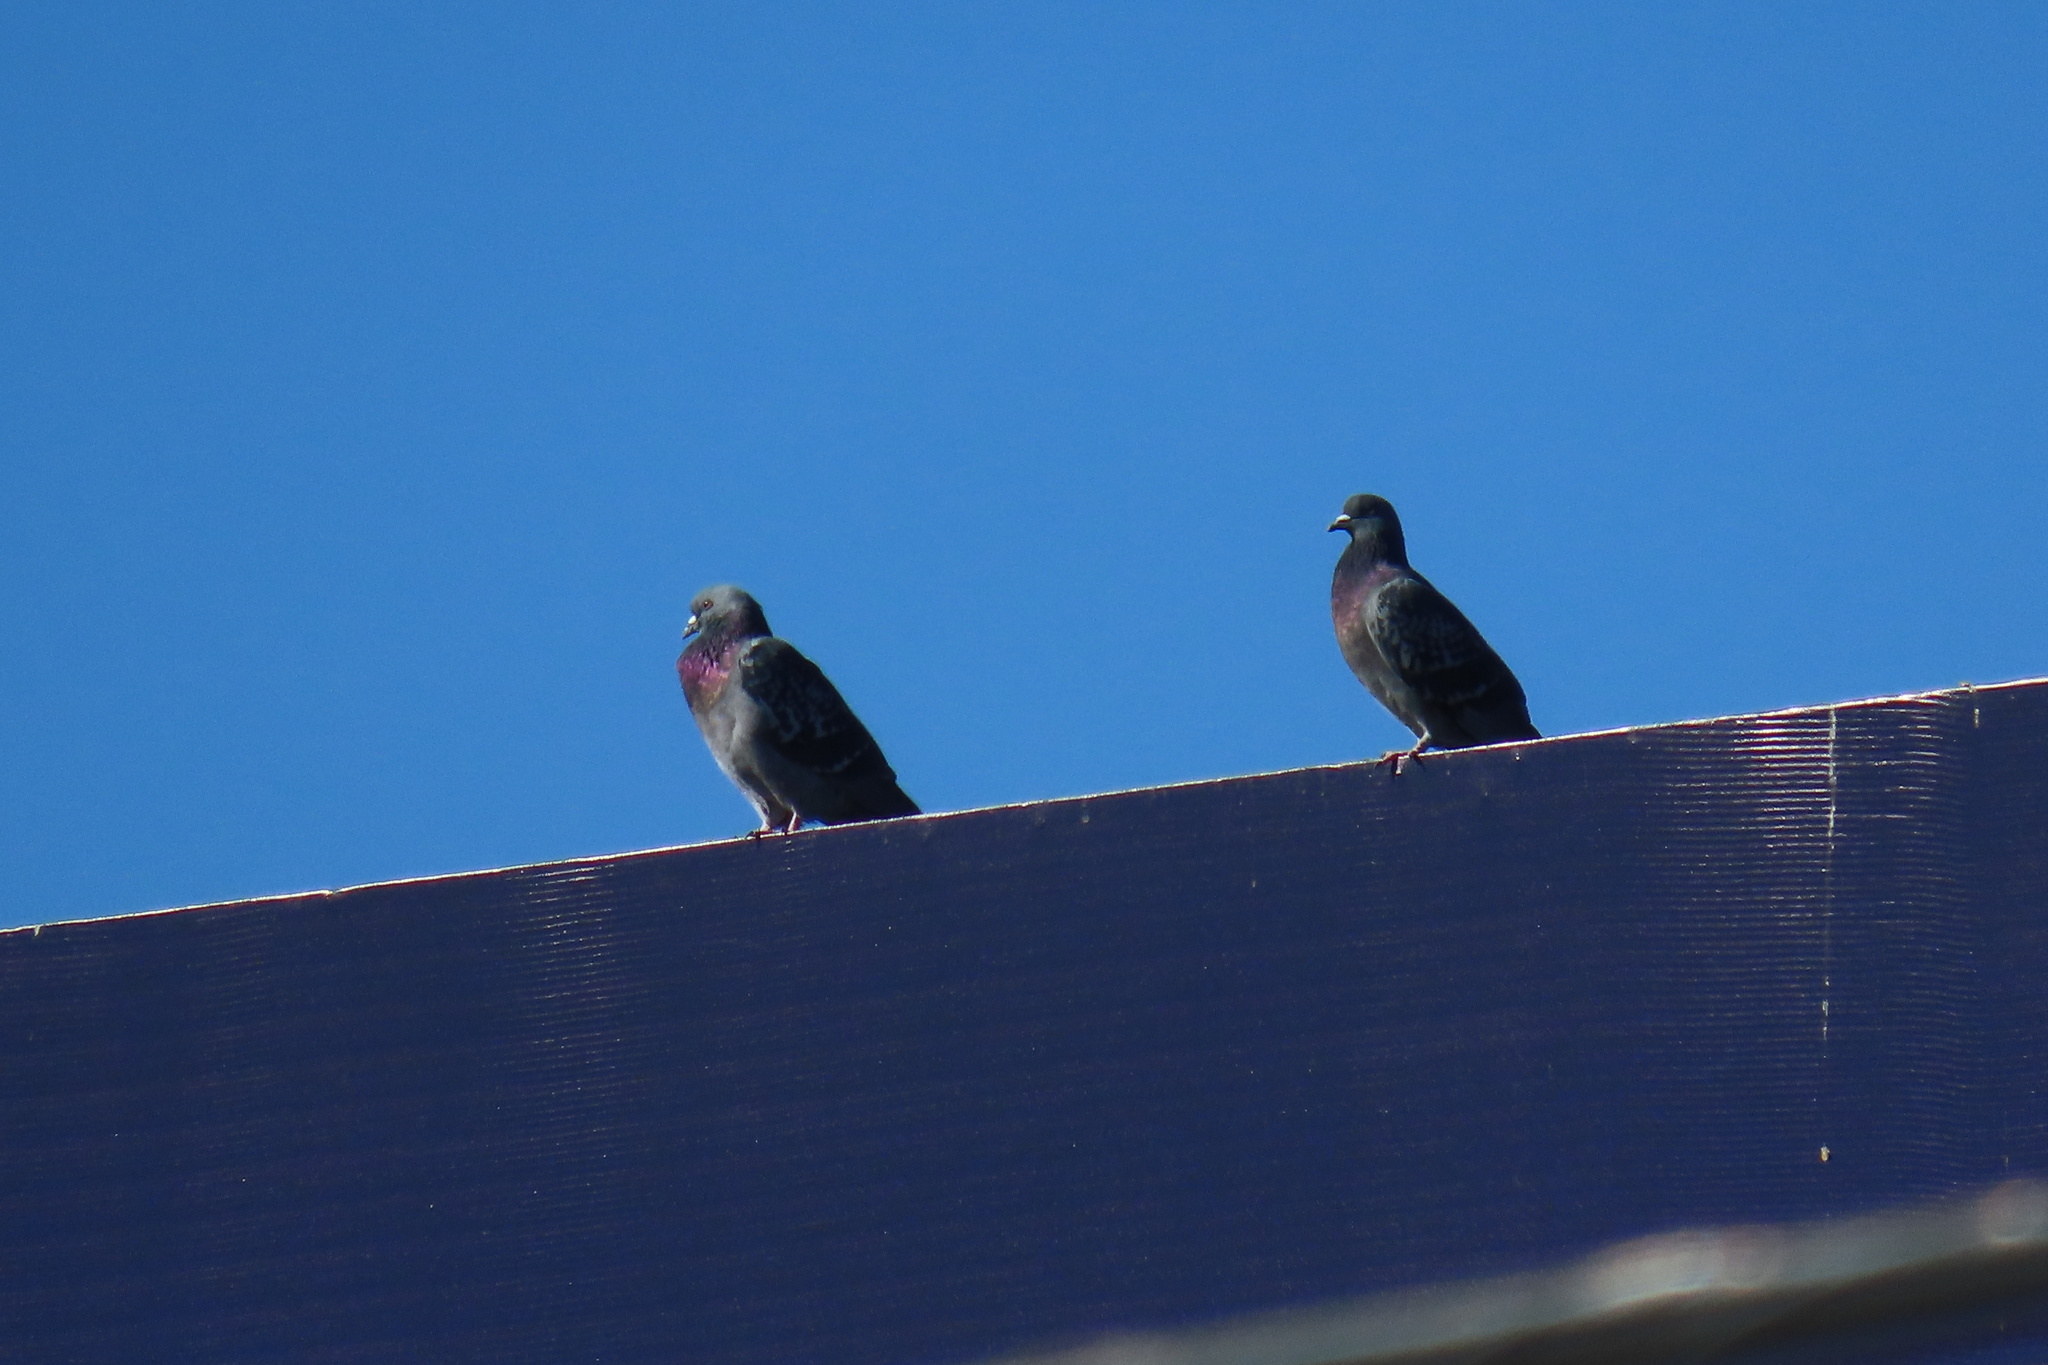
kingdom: Animalia
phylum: Chordata
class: Aves
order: Columbiformes
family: Columbidae
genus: Columba
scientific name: Columba livia
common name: Rock pigeon
